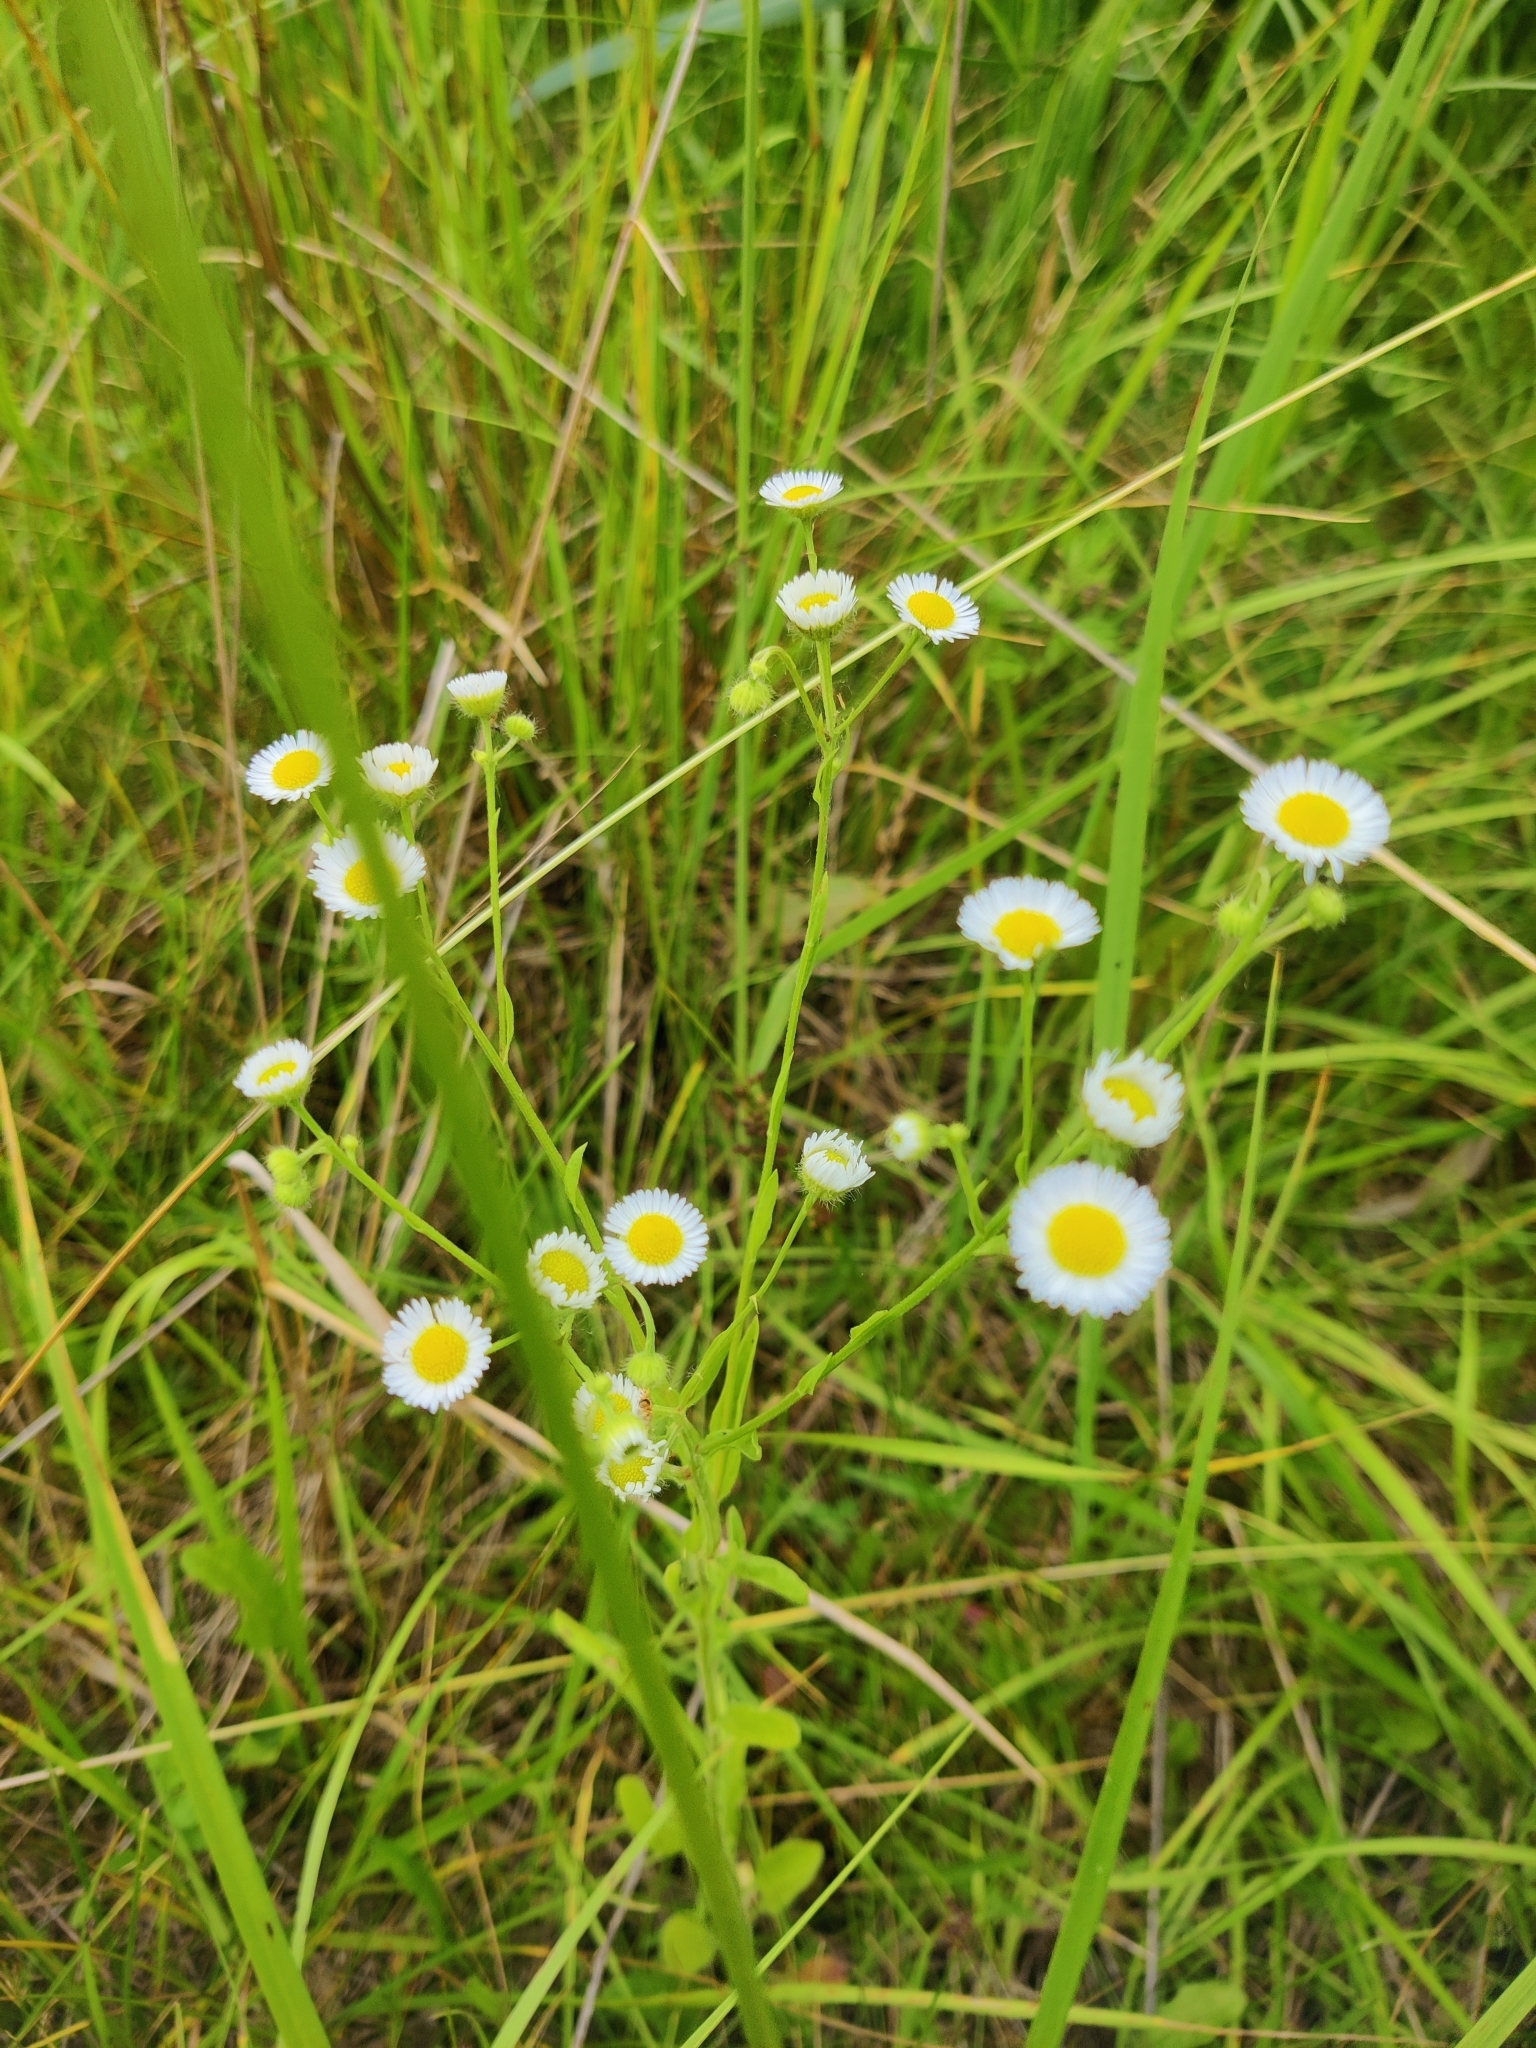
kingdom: Plantae
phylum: Tracheophyta
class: Magnoliopsida
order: Asterales
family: Asteraceae
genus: Erigeron
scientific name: Erigeron annuus
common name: Tall fleabane
